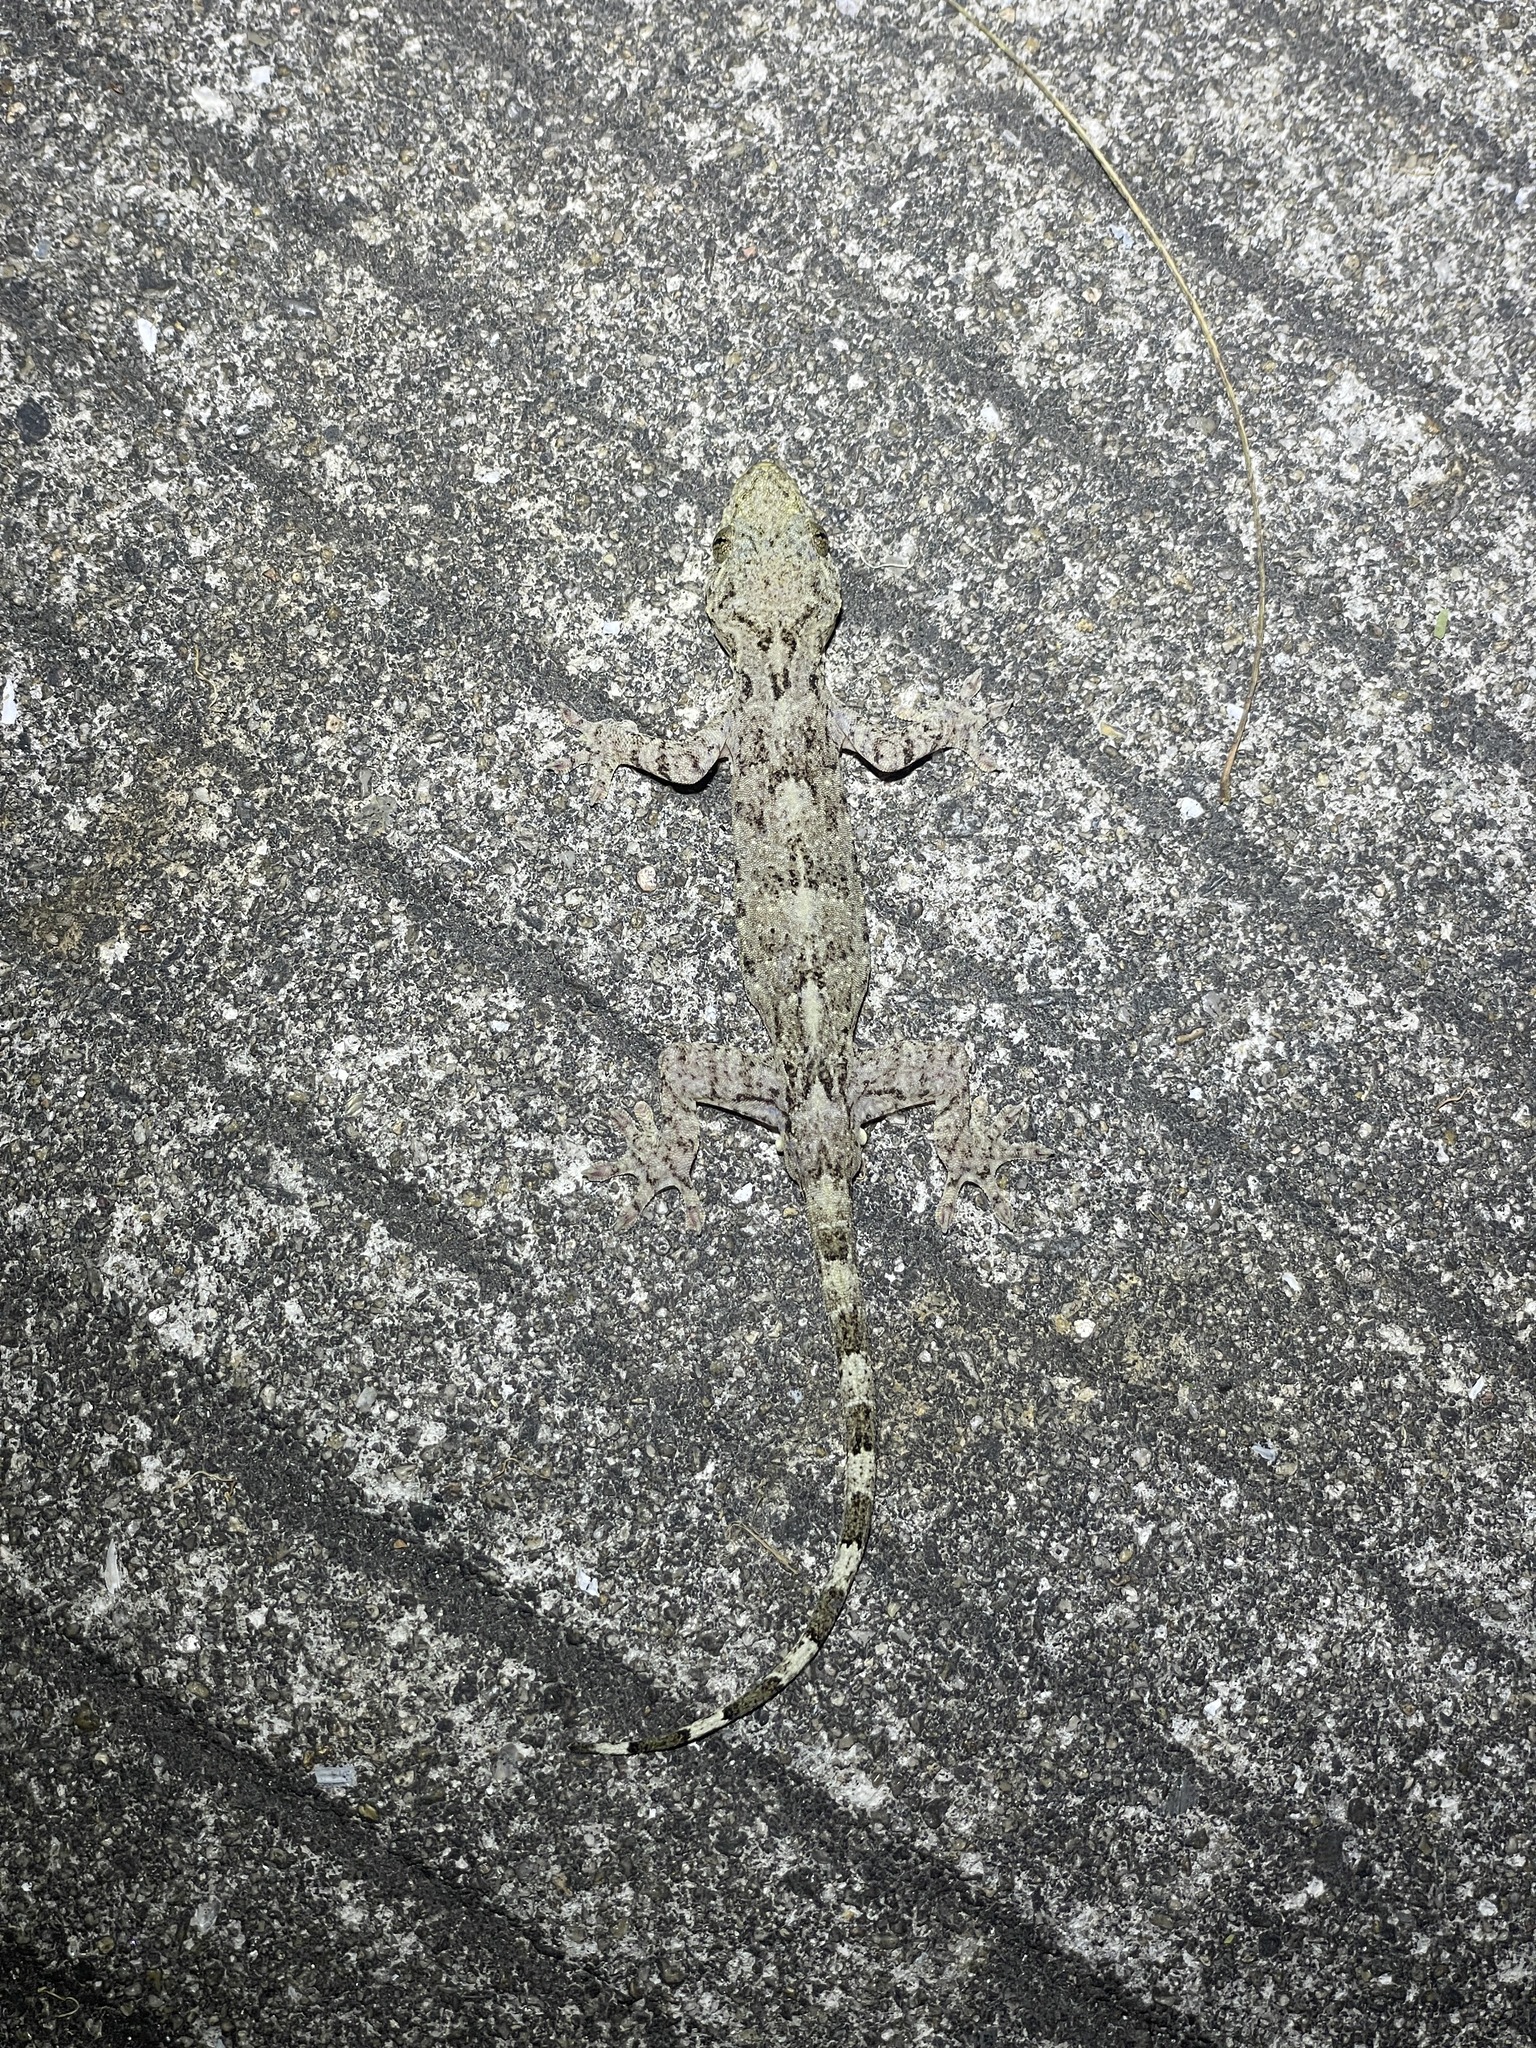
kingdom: Animalia
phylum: Chordata
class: Squamata
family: Gekkonidae
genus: Gekko
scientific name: Gekko chinensis
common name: Gray's chinese gecko
